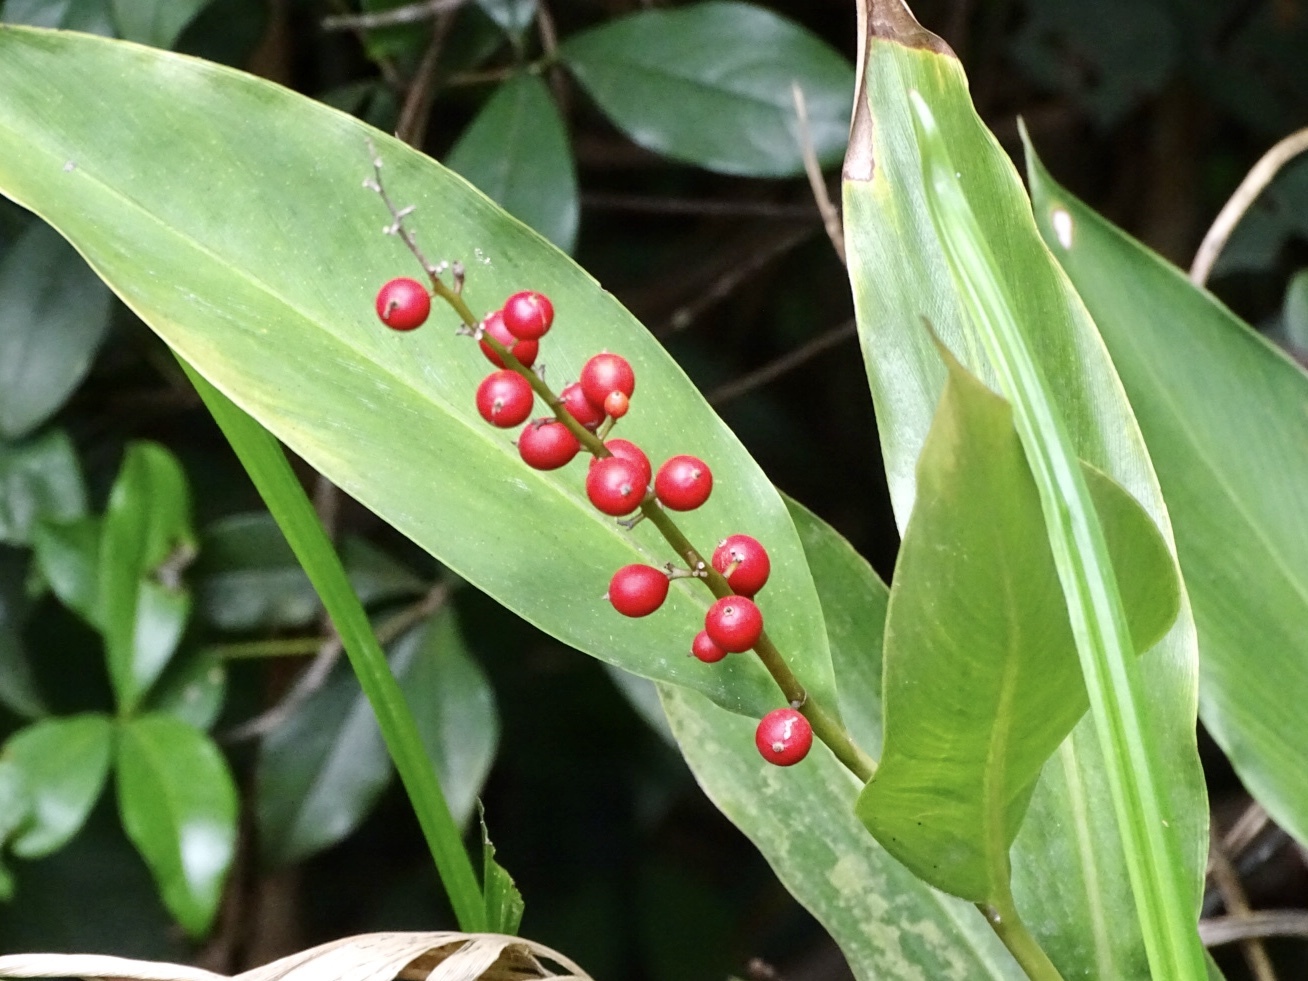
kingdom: Plantae
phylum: Tracheophyta
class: Liliopsida
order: Zingiberales
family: Zingiberaceae
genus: Alpinia
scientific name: Alpinia oblongifolia
